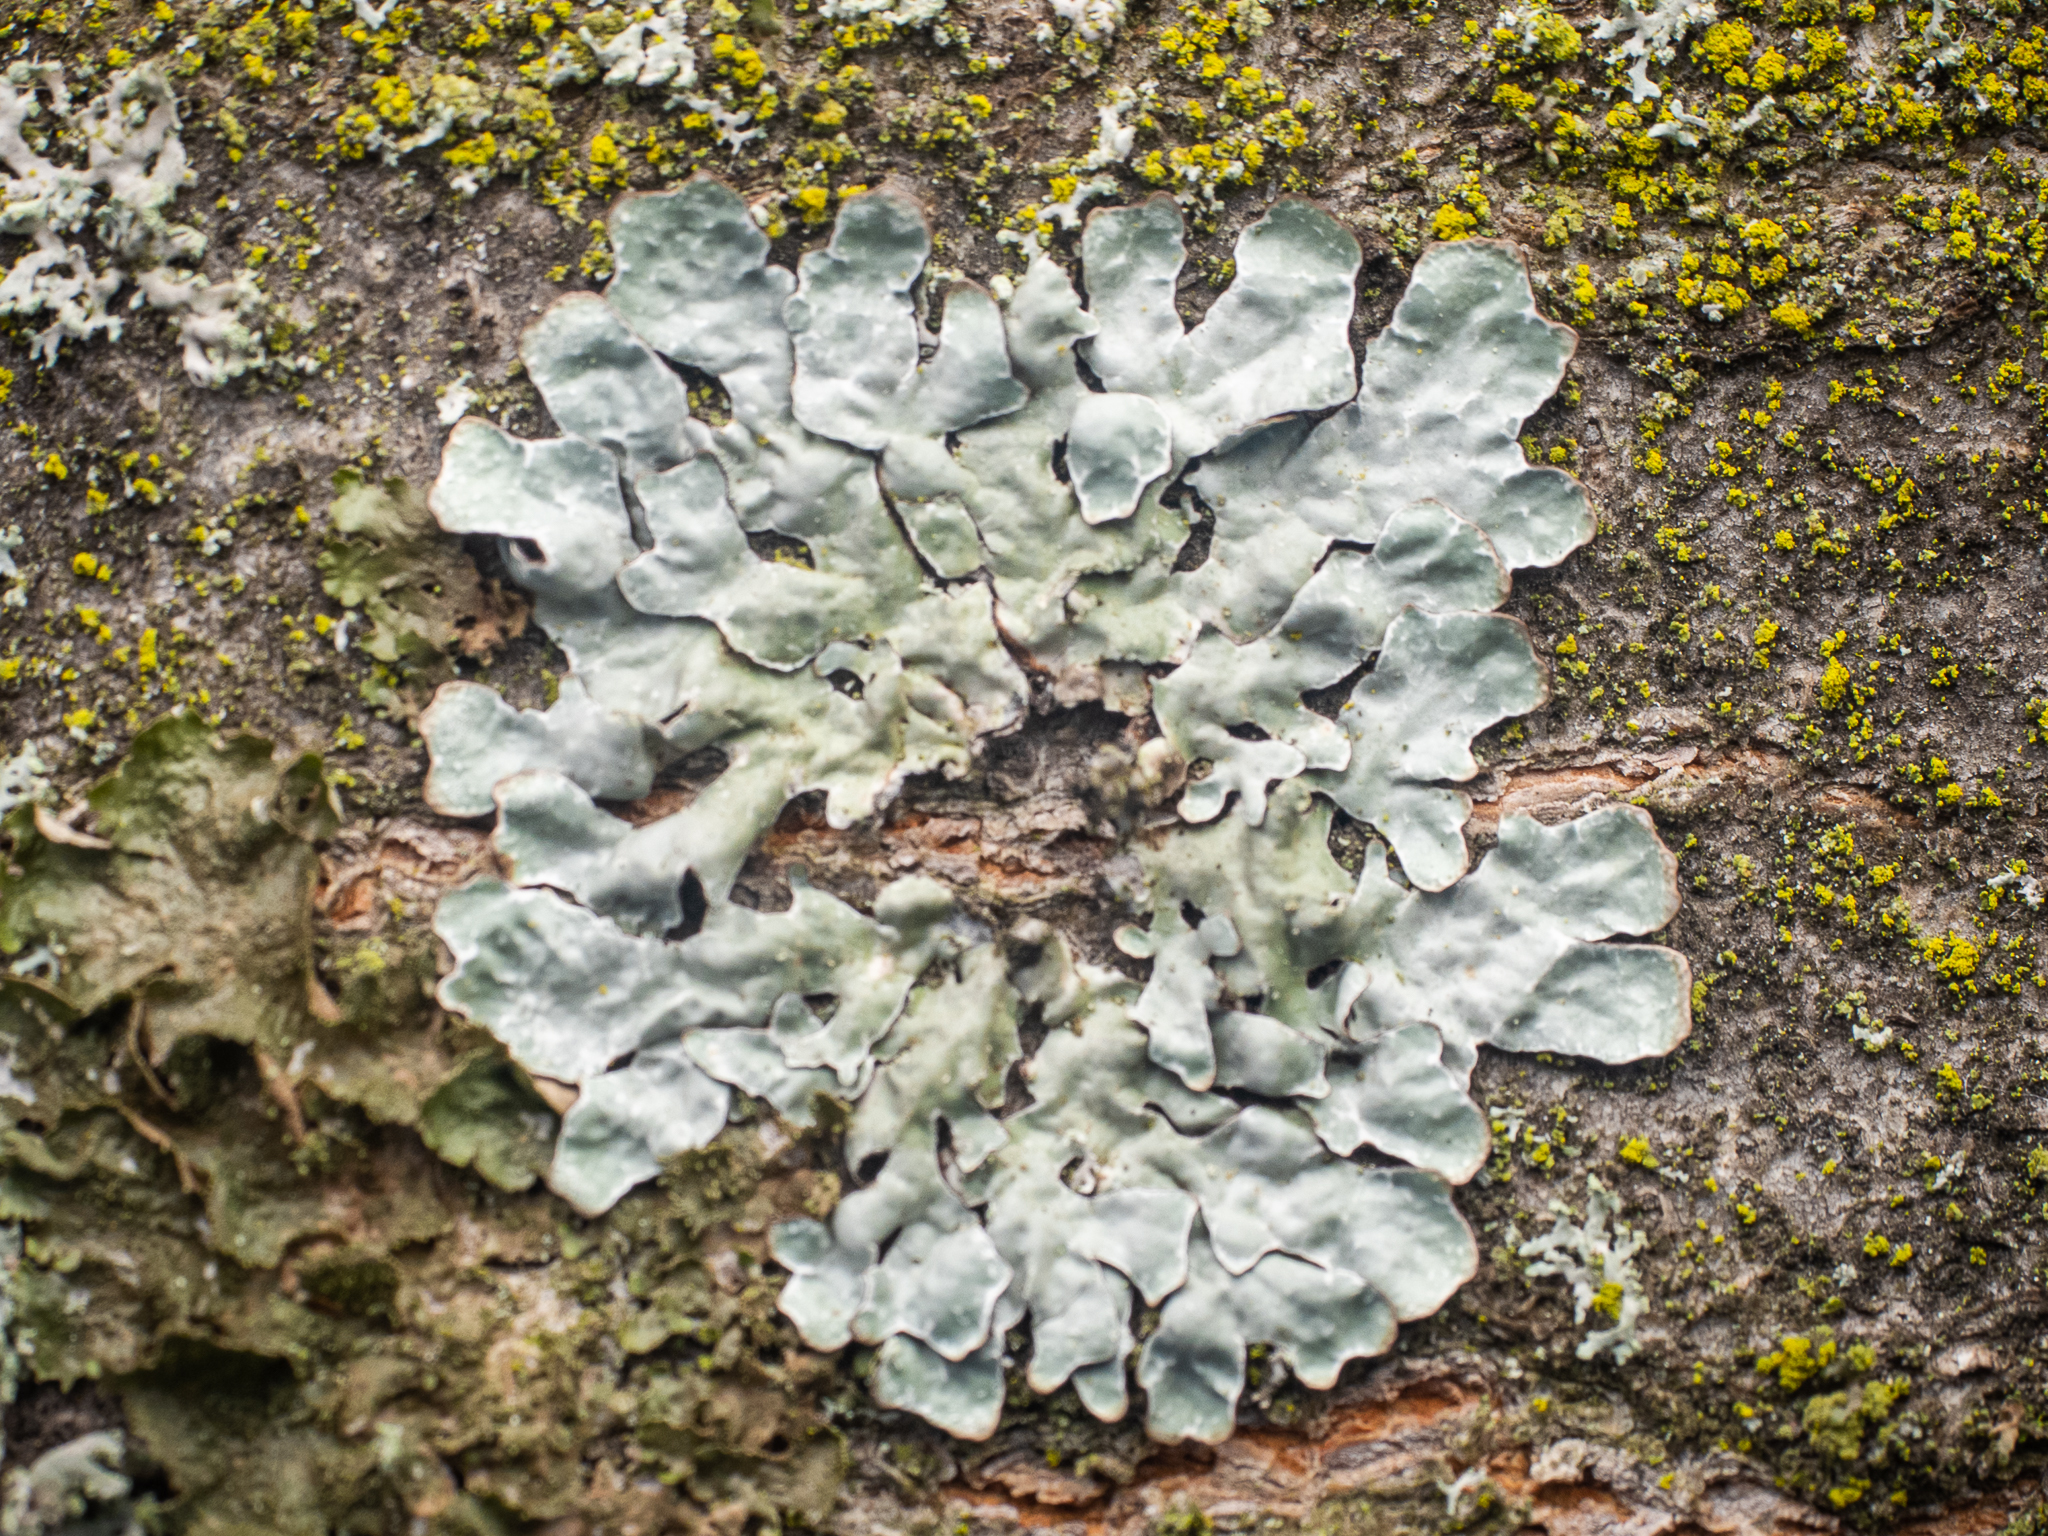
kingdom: Fungi
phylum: Ascomycota
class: Lecanoromycetes
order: Lecanorales
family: Parmeliaceae
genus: Parmelia
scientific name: Parmelia sulcata
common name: Netted shield lichen
